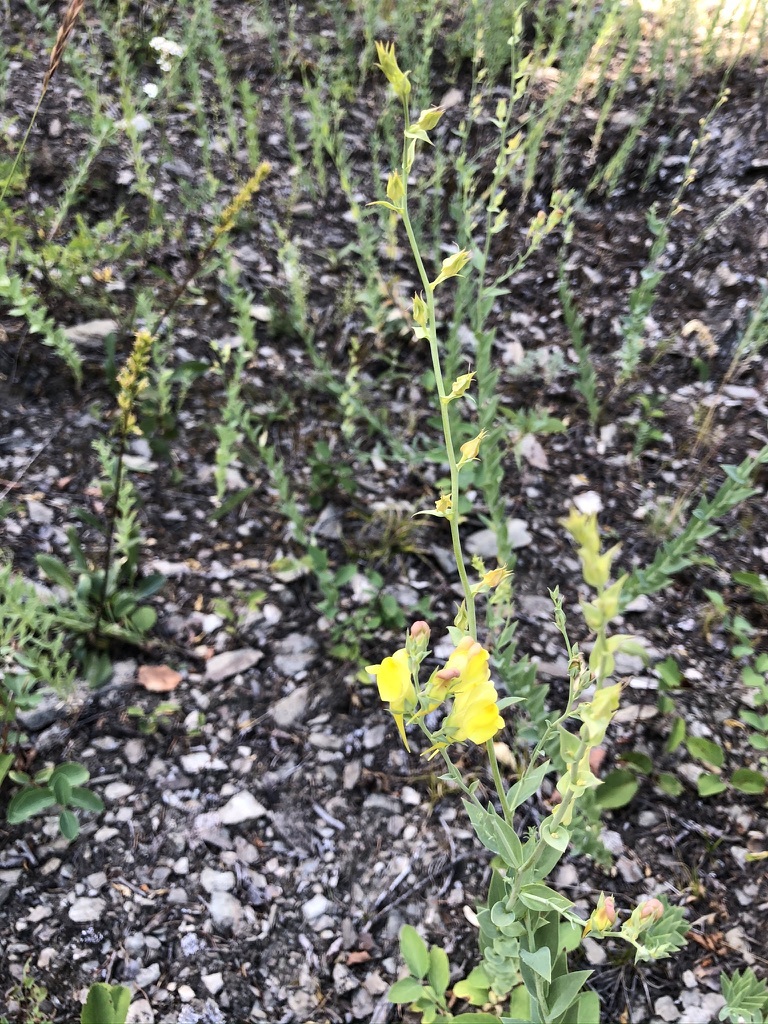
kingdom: Plantae
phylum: Tracheophyta
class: Magnoliopsida
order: Lamiales
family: Plantaginaceae
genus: Linaria
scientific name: Linaria dalmatica
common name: Dalmatian toadflax
